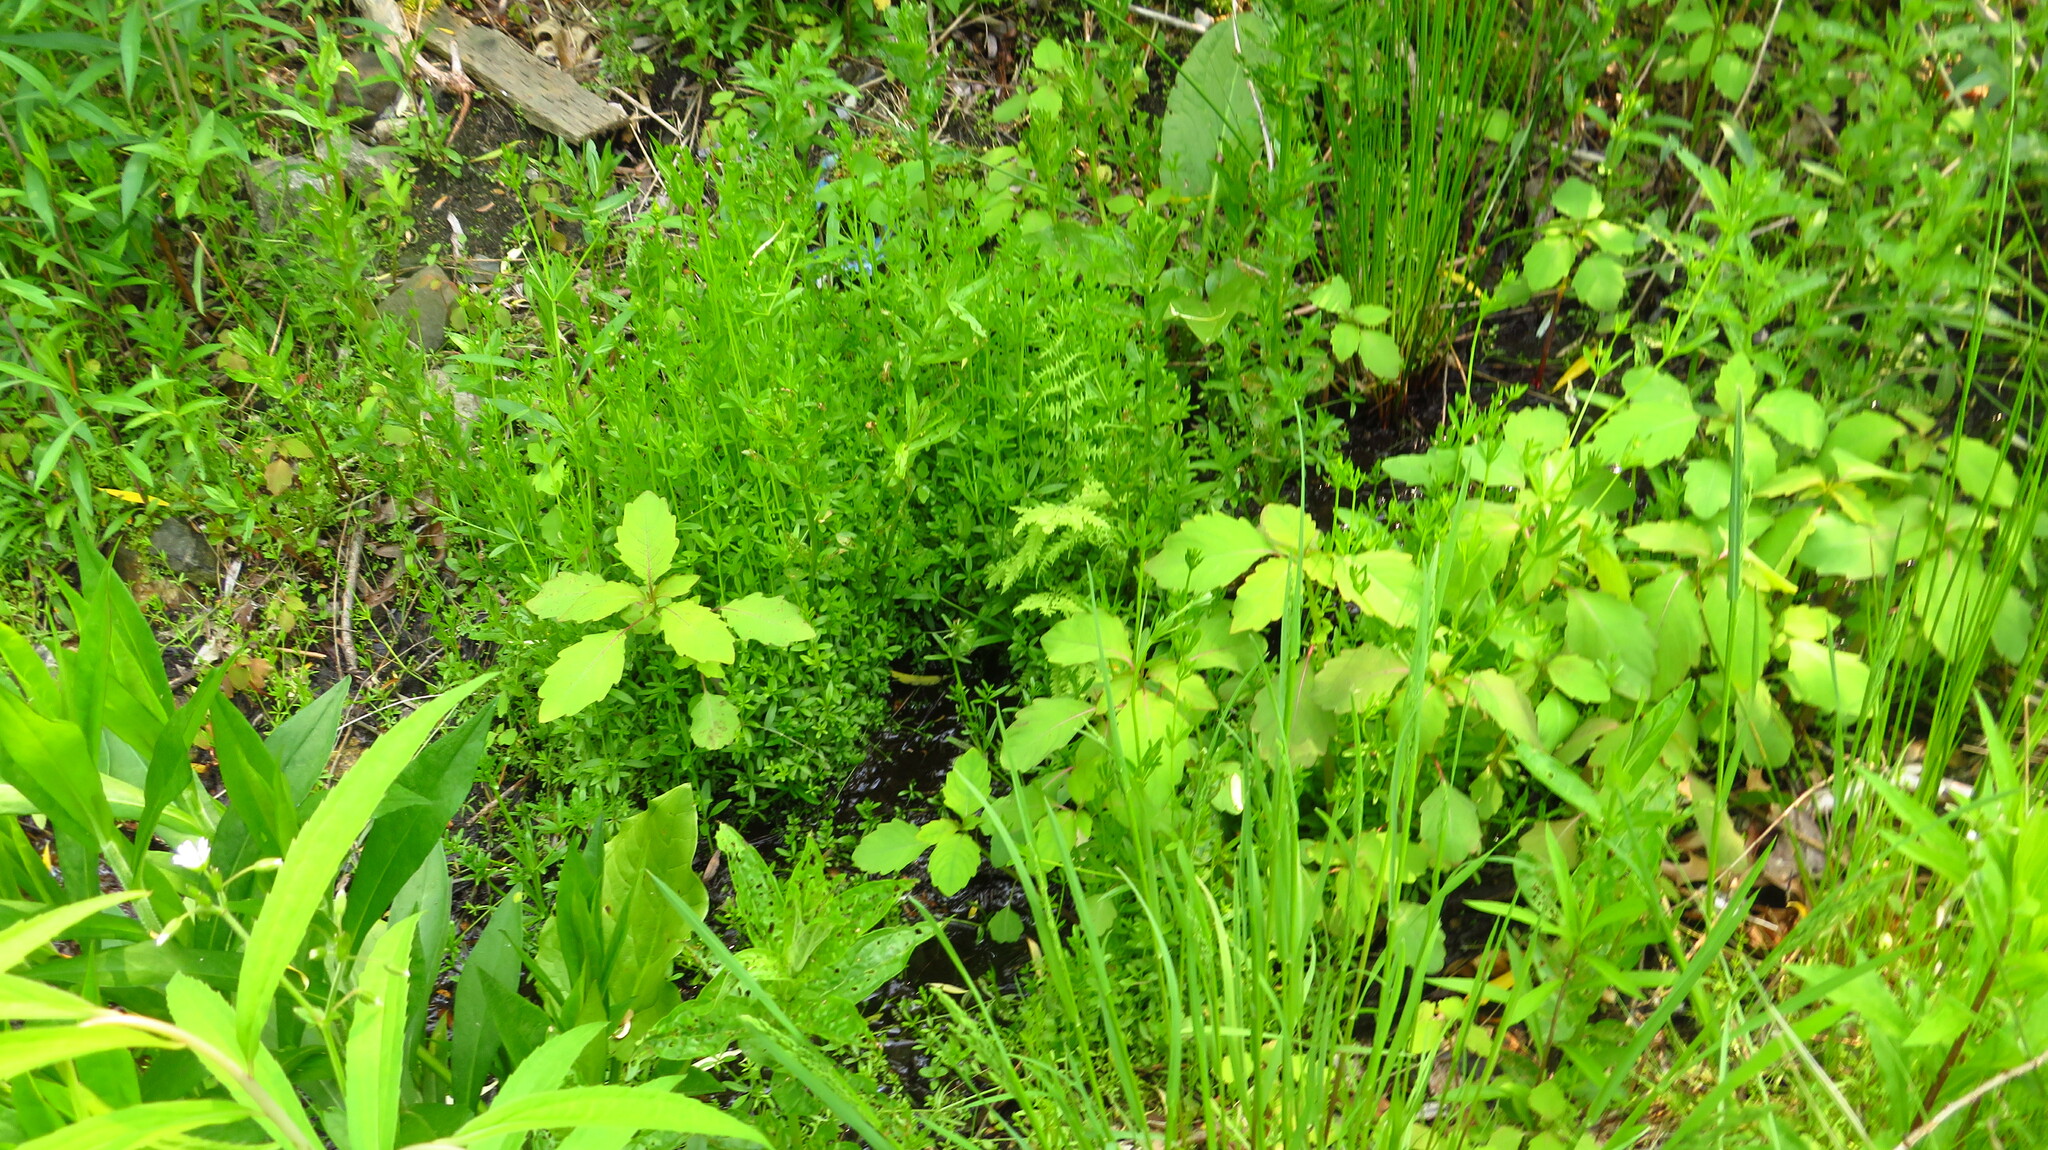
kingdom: Plantae
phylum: Tracheophyta
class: Magnoliopsida
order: Ericales
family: Balsaminaceae
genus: Impatiens
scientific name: Impatiens
